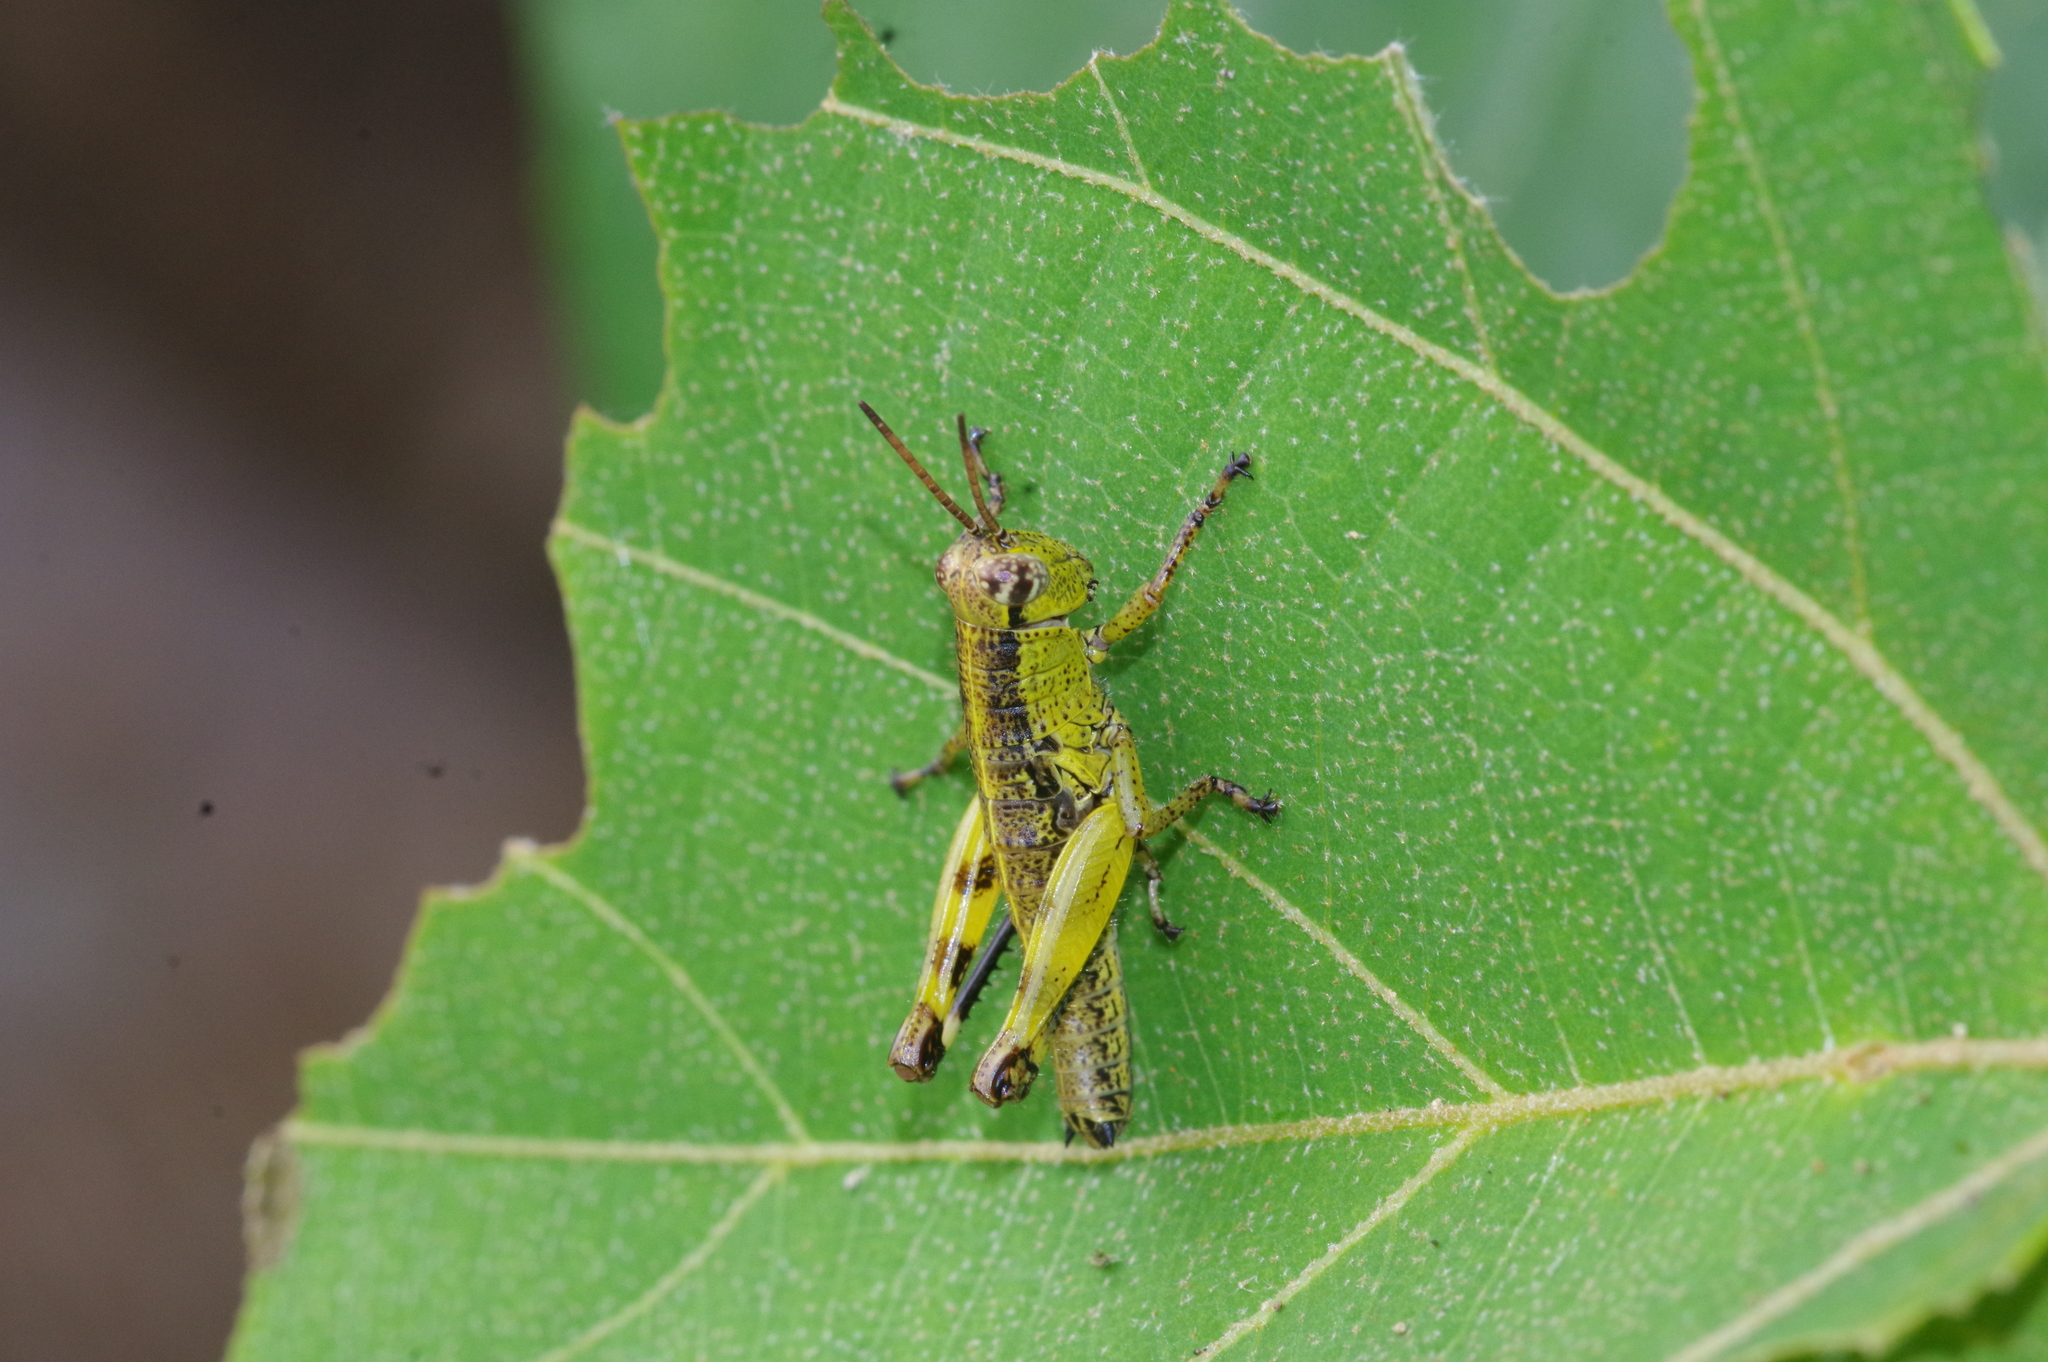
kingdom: Animalia
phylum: Arthropoda
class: Insecta
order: Orthoptera
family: Acrididae
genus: Fruhstorferiola
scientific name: Fruhstorferiola okinawaensis
